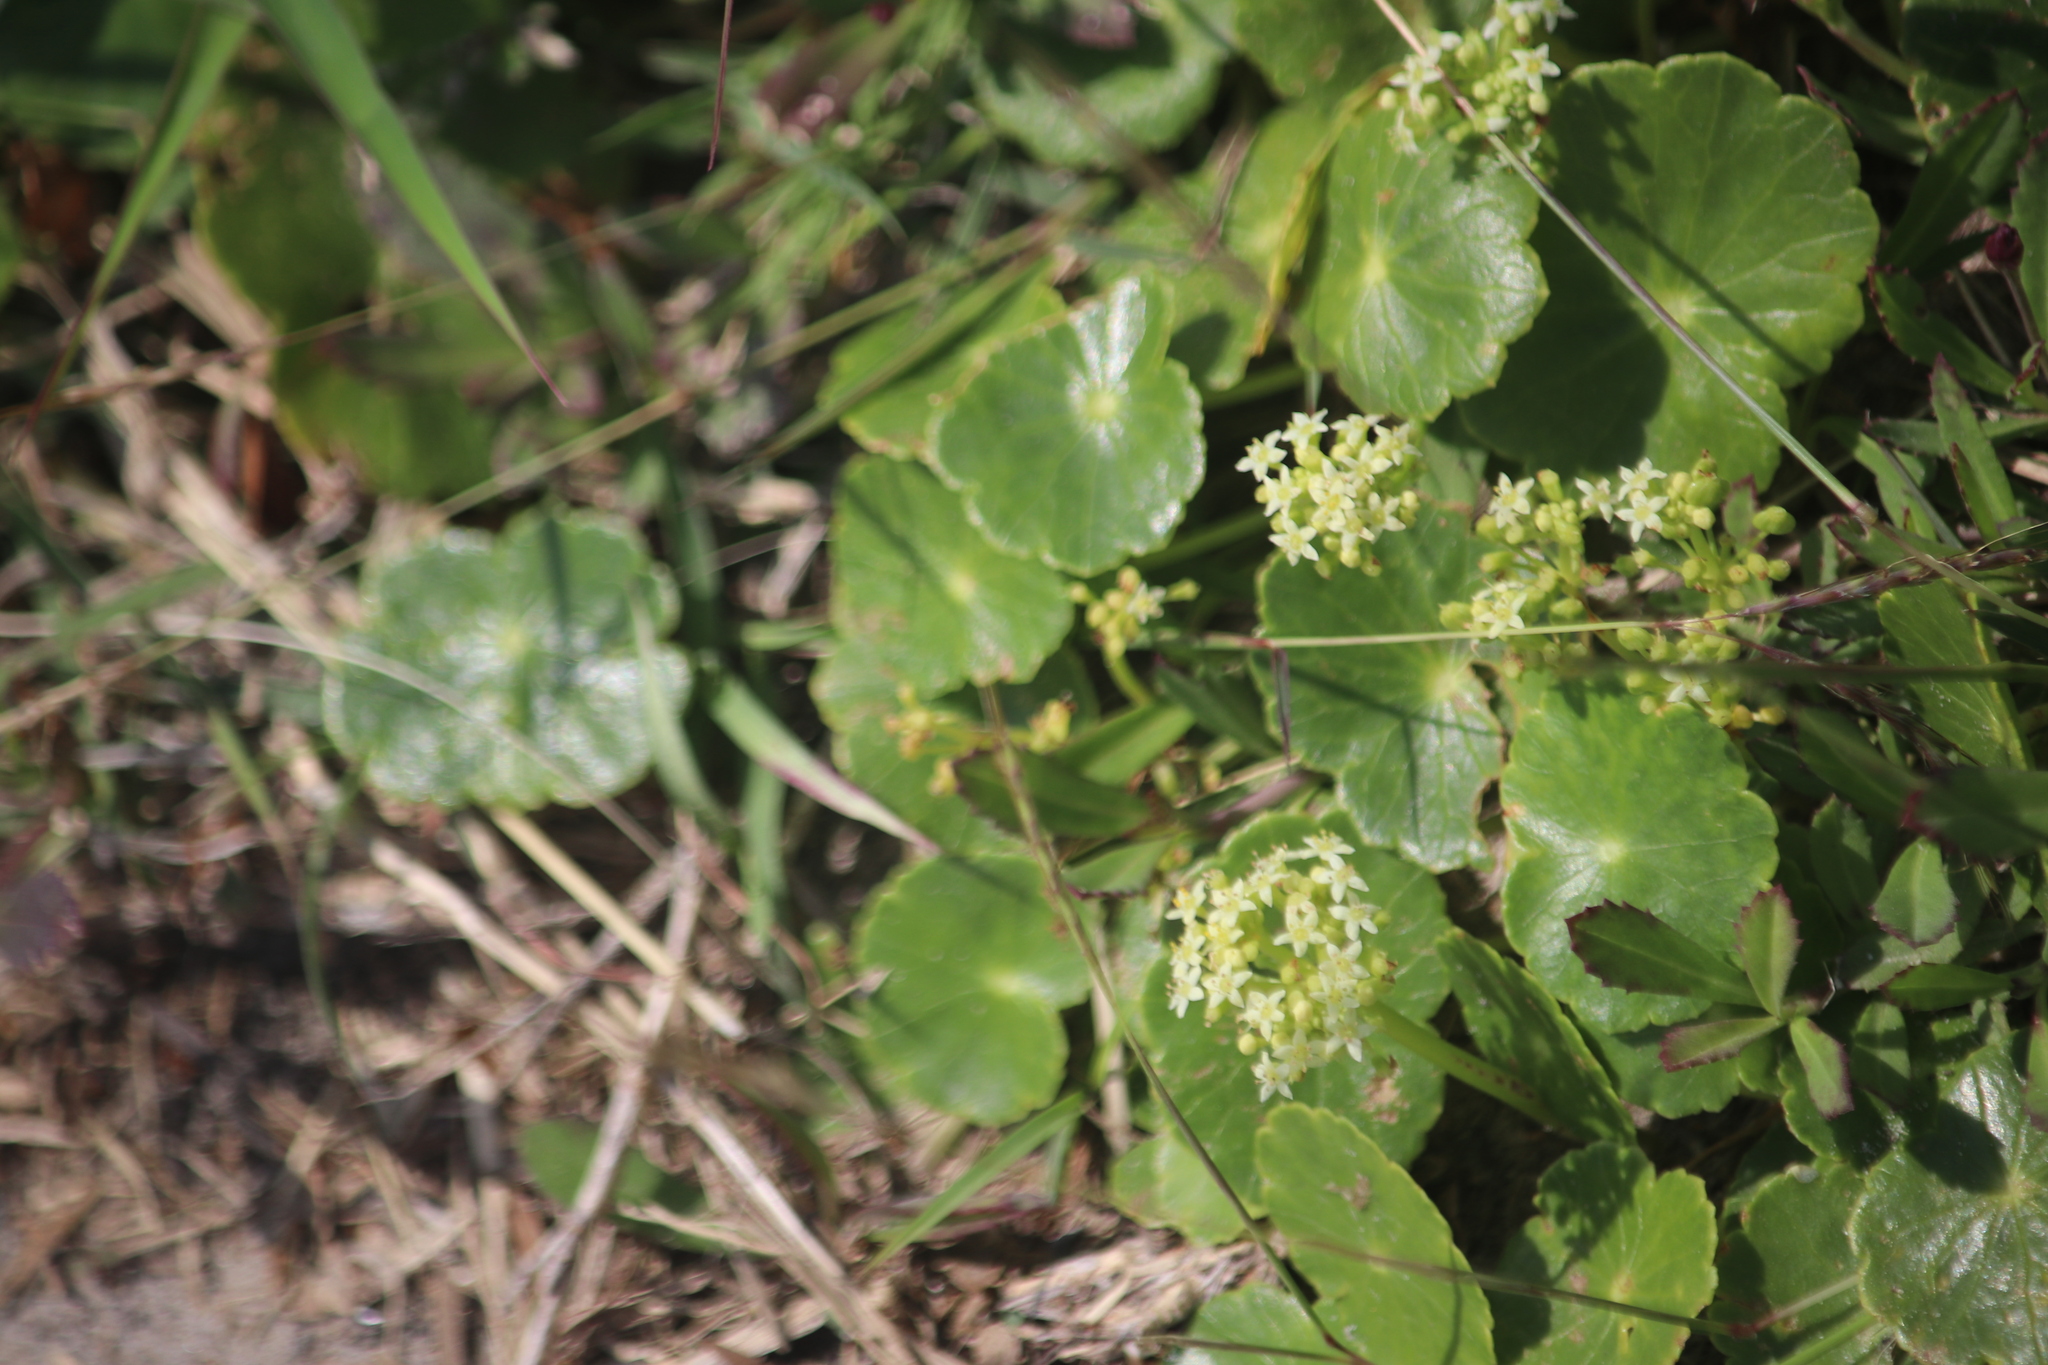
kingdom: Plantae
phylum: Tracheophyta
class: Magnoliopsida
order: Apiales
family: Araliaceae
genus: Hydrocotyle
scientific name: Hydrocotyle bonariensis
